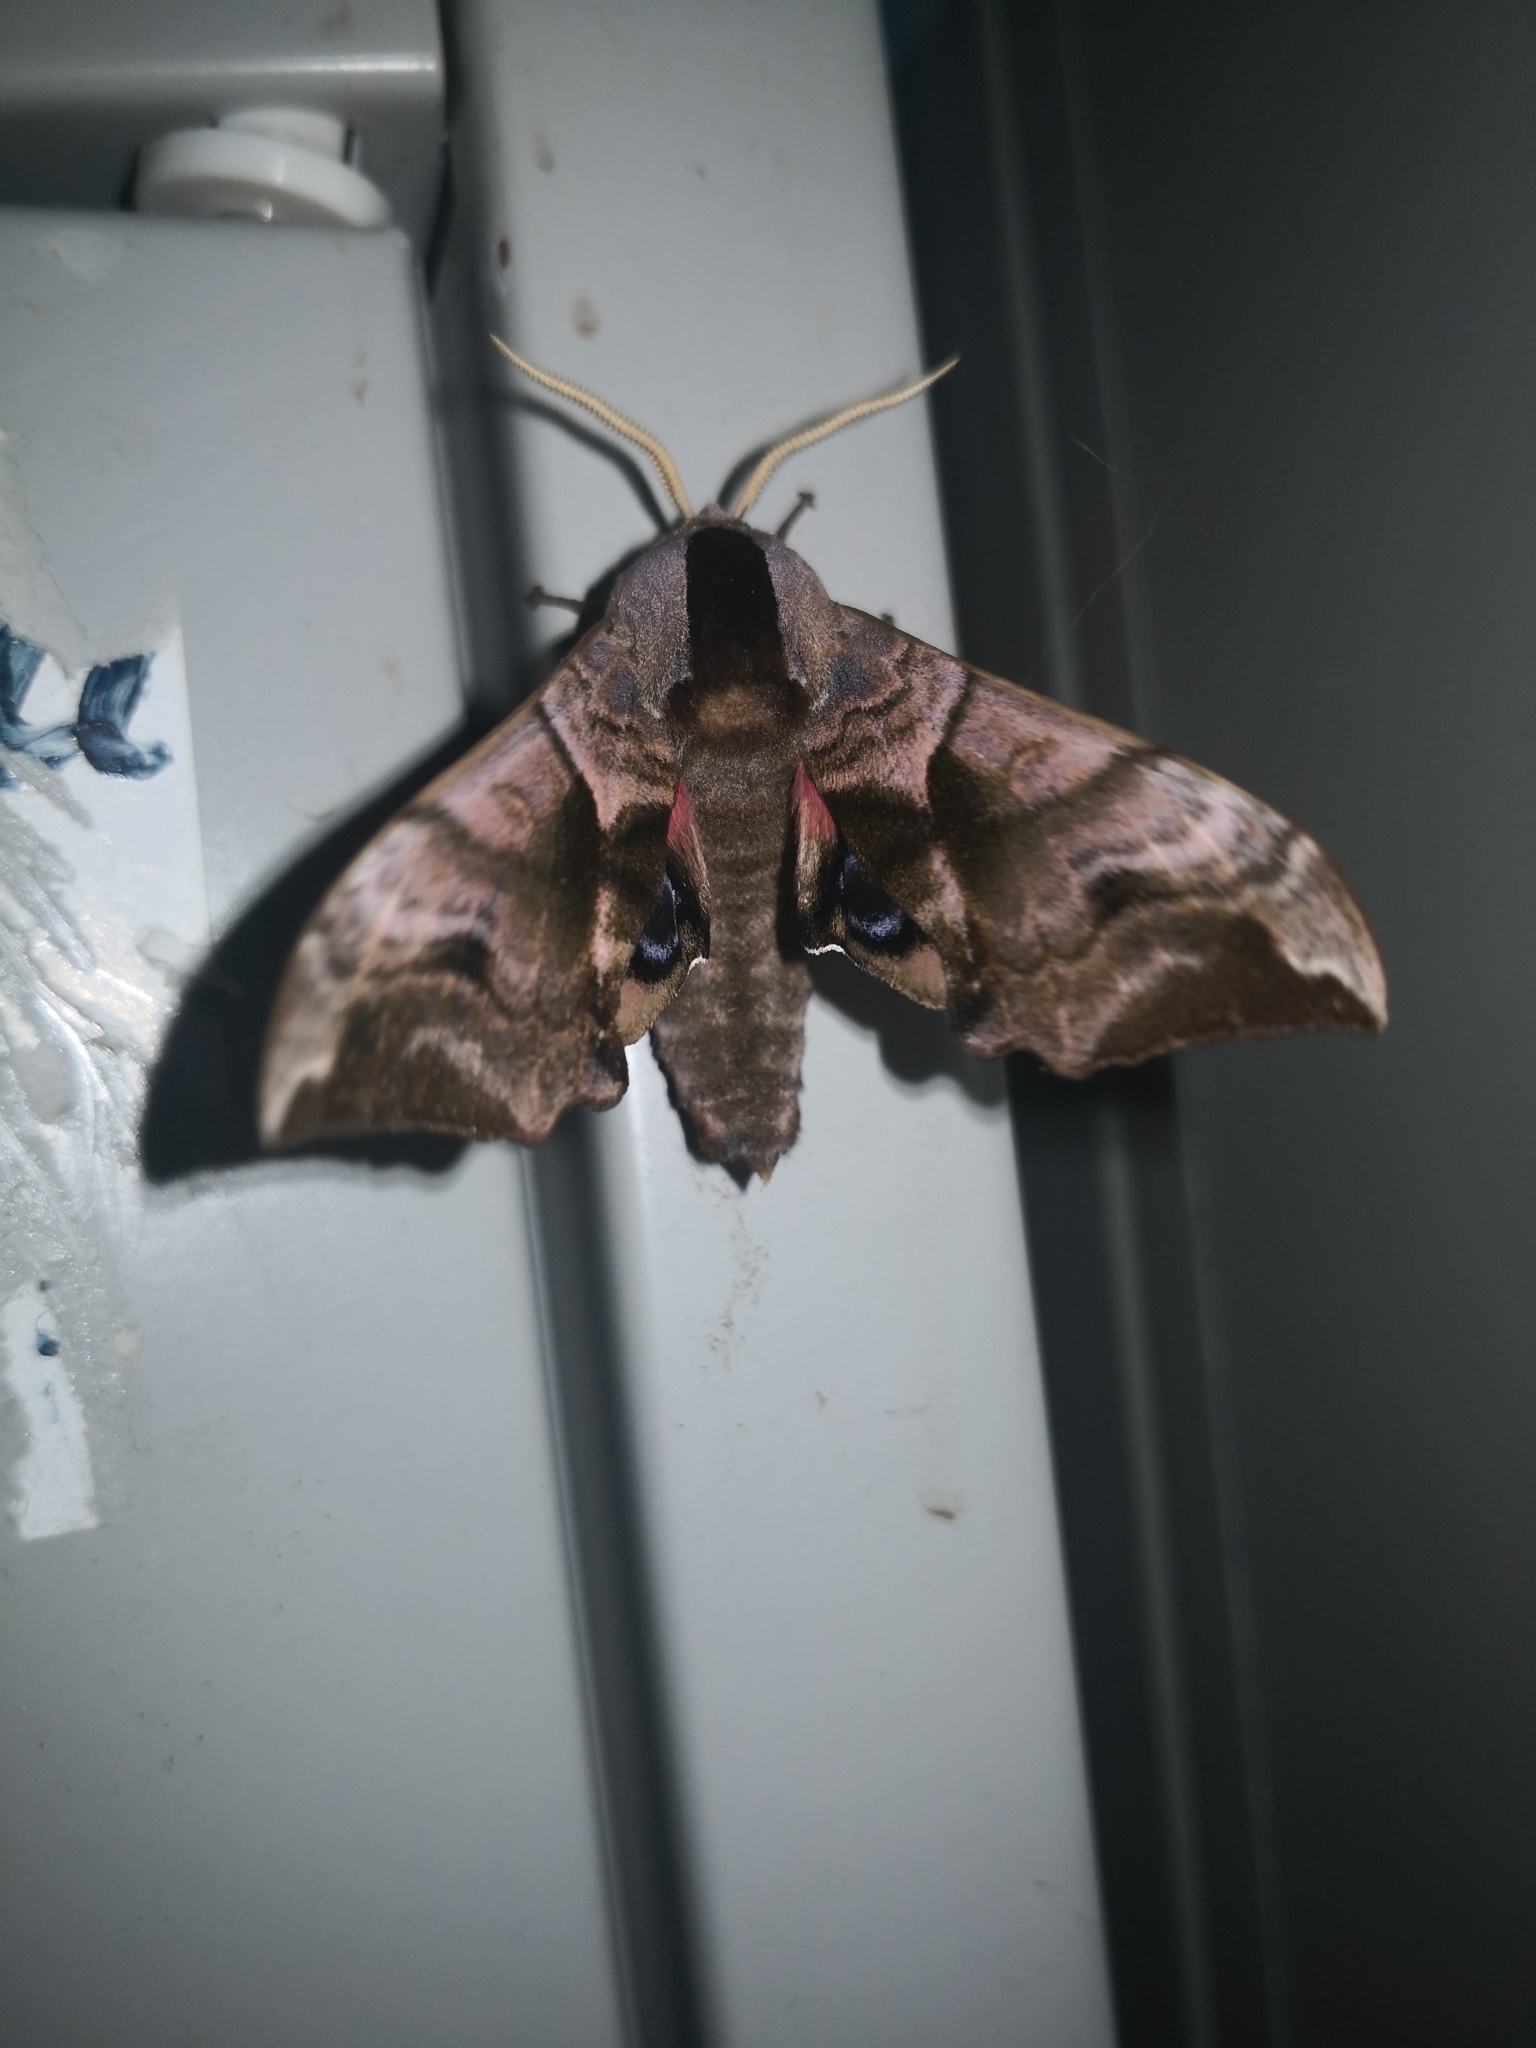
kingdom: Animalia
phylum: Arthropoda
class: Insecta
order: Lepidoptera
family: Sphingidae
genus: Smerinthus
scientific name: Smerinthus ocellata
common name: Eyed hawk-moth
